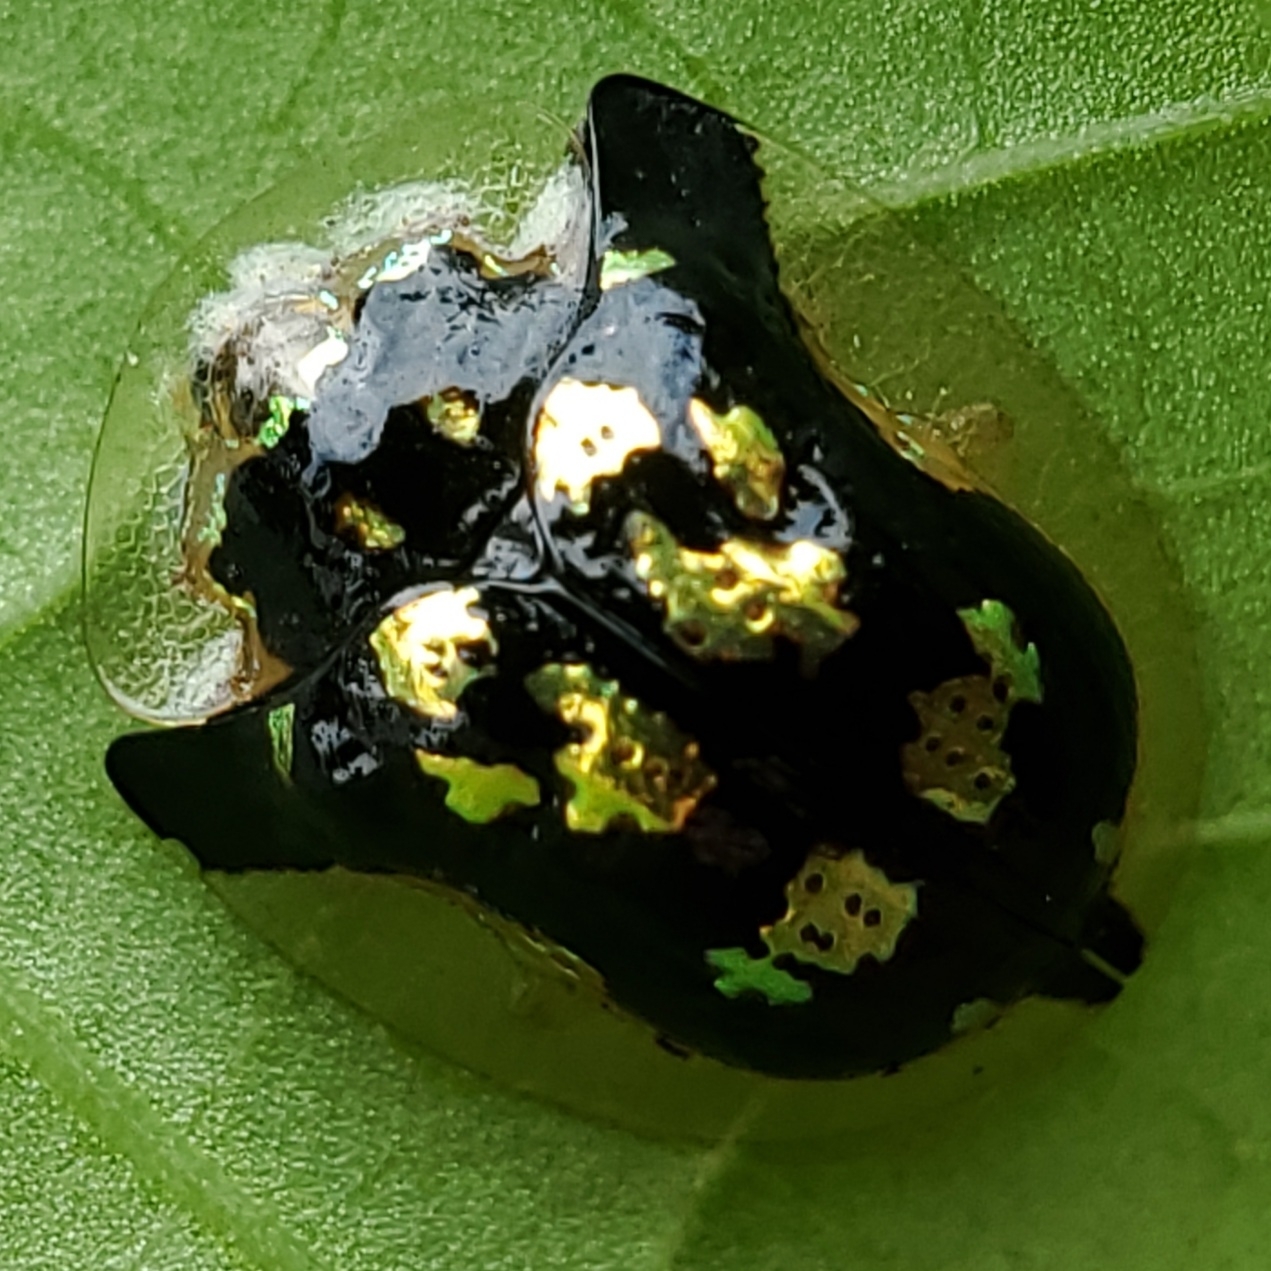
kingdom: Animalia
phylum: Arthropoda
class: Insecta
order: Coleoptera
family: Chrysomelidae
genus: Deloyala
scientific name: Deloyala guttata
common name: Mottled tortoise beetle
